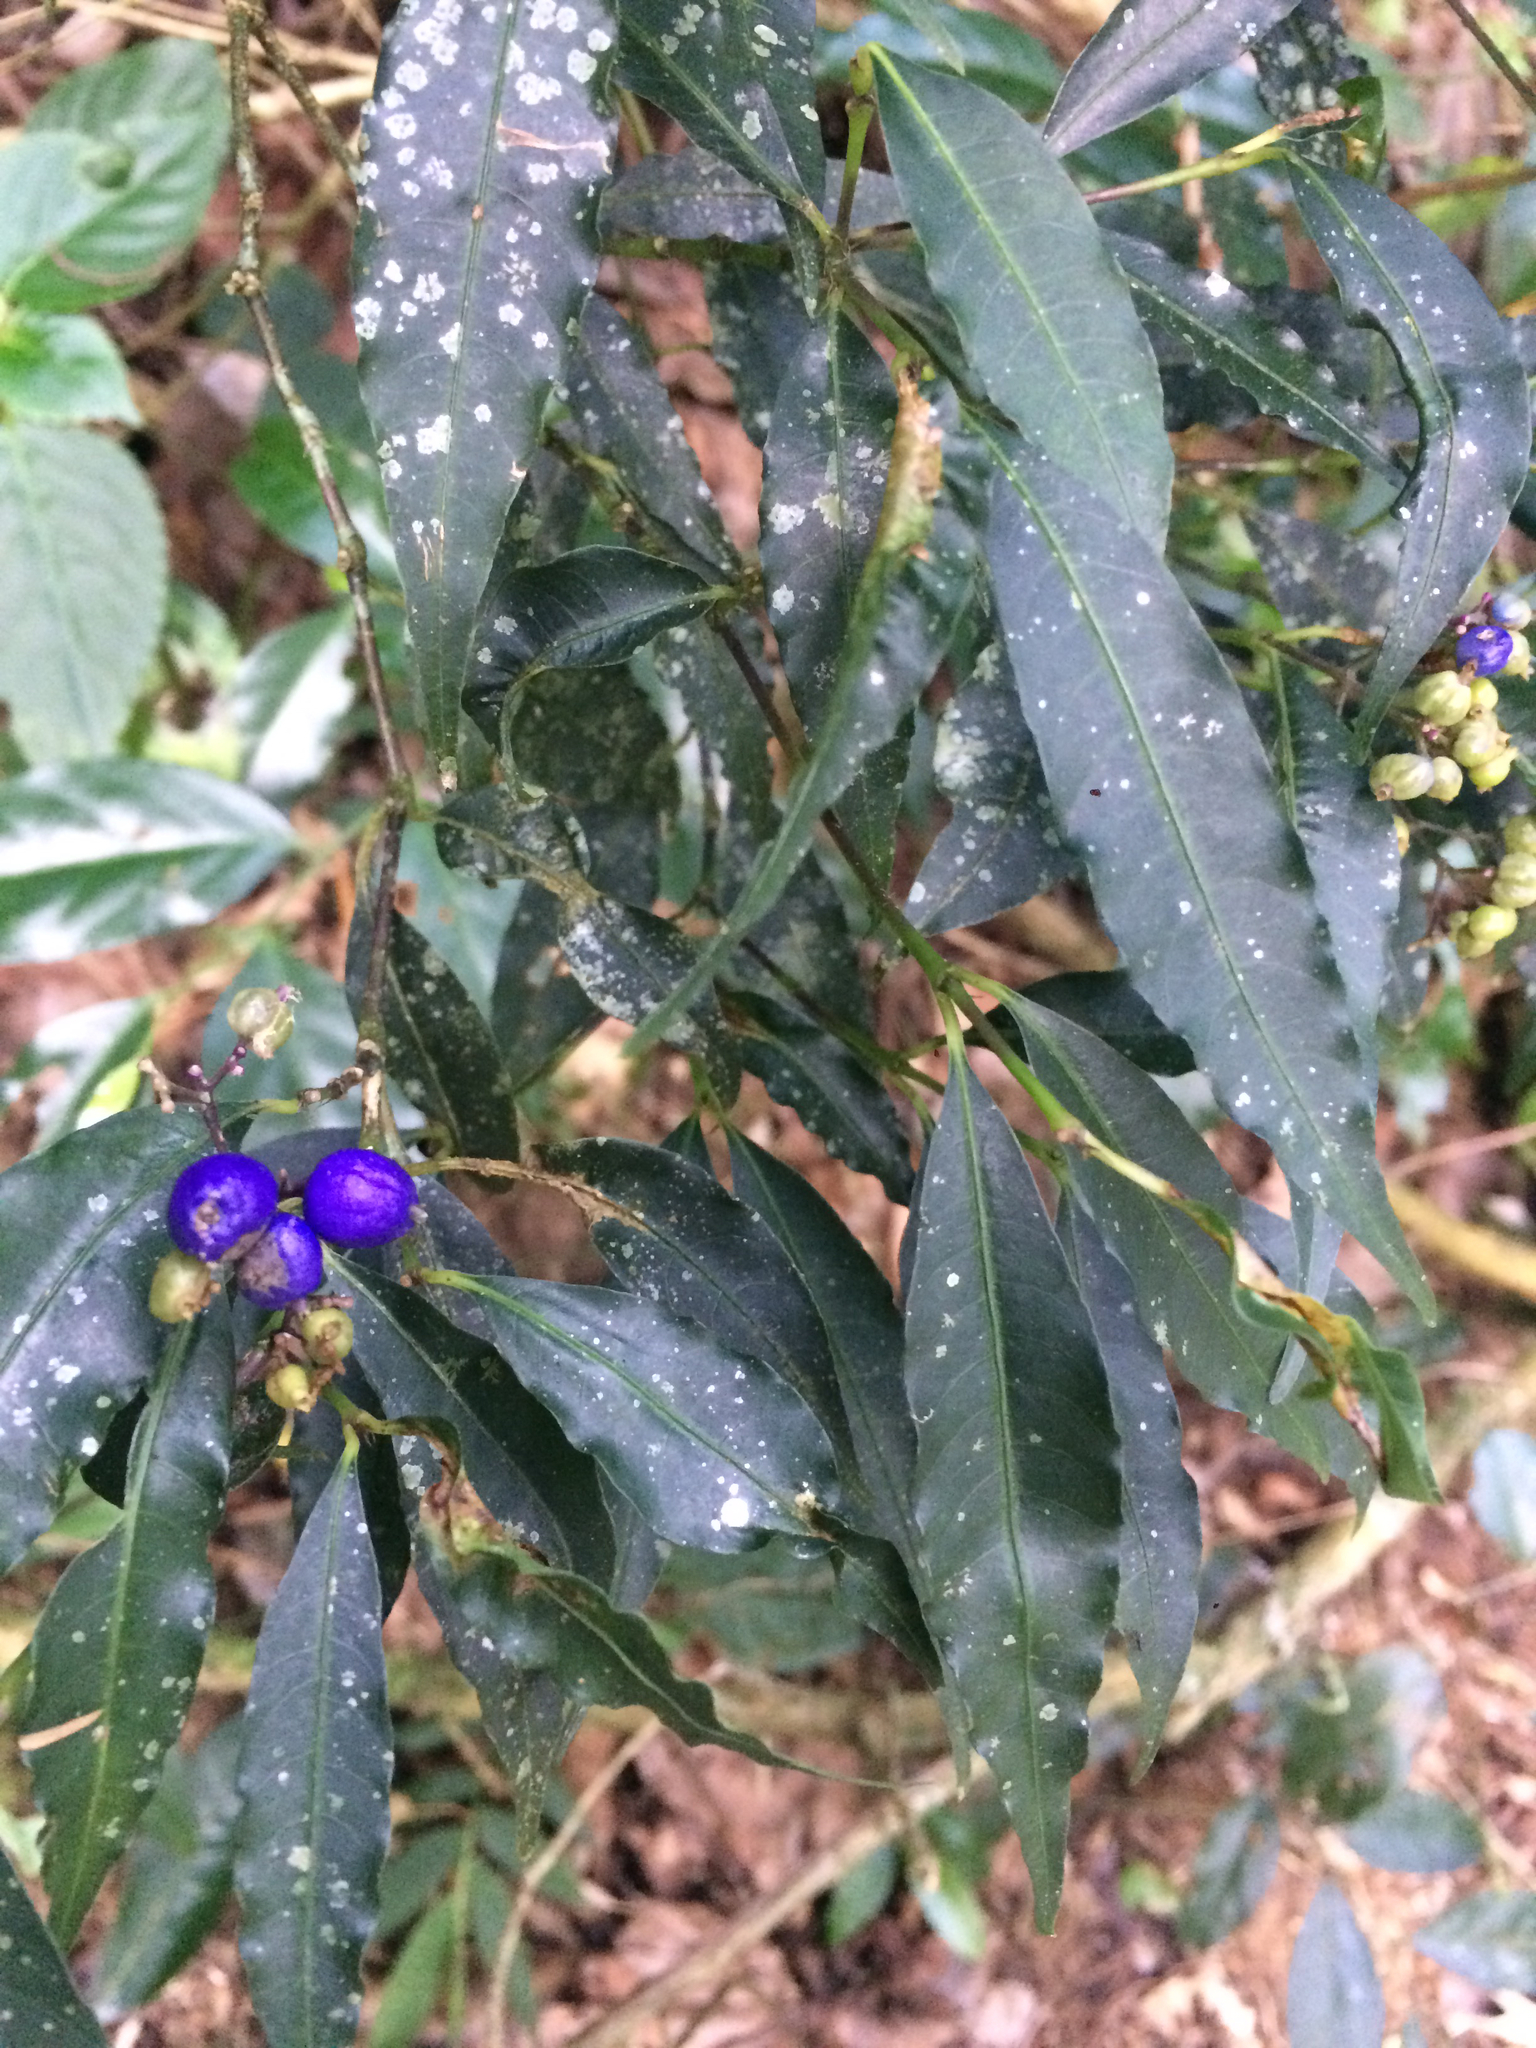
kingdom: Plantae
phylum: Tracheophyta
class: Magnoliopsida
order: Gentianales
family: Rubiaceae
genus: Psychotria
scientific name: Psychotria leiocarpa
